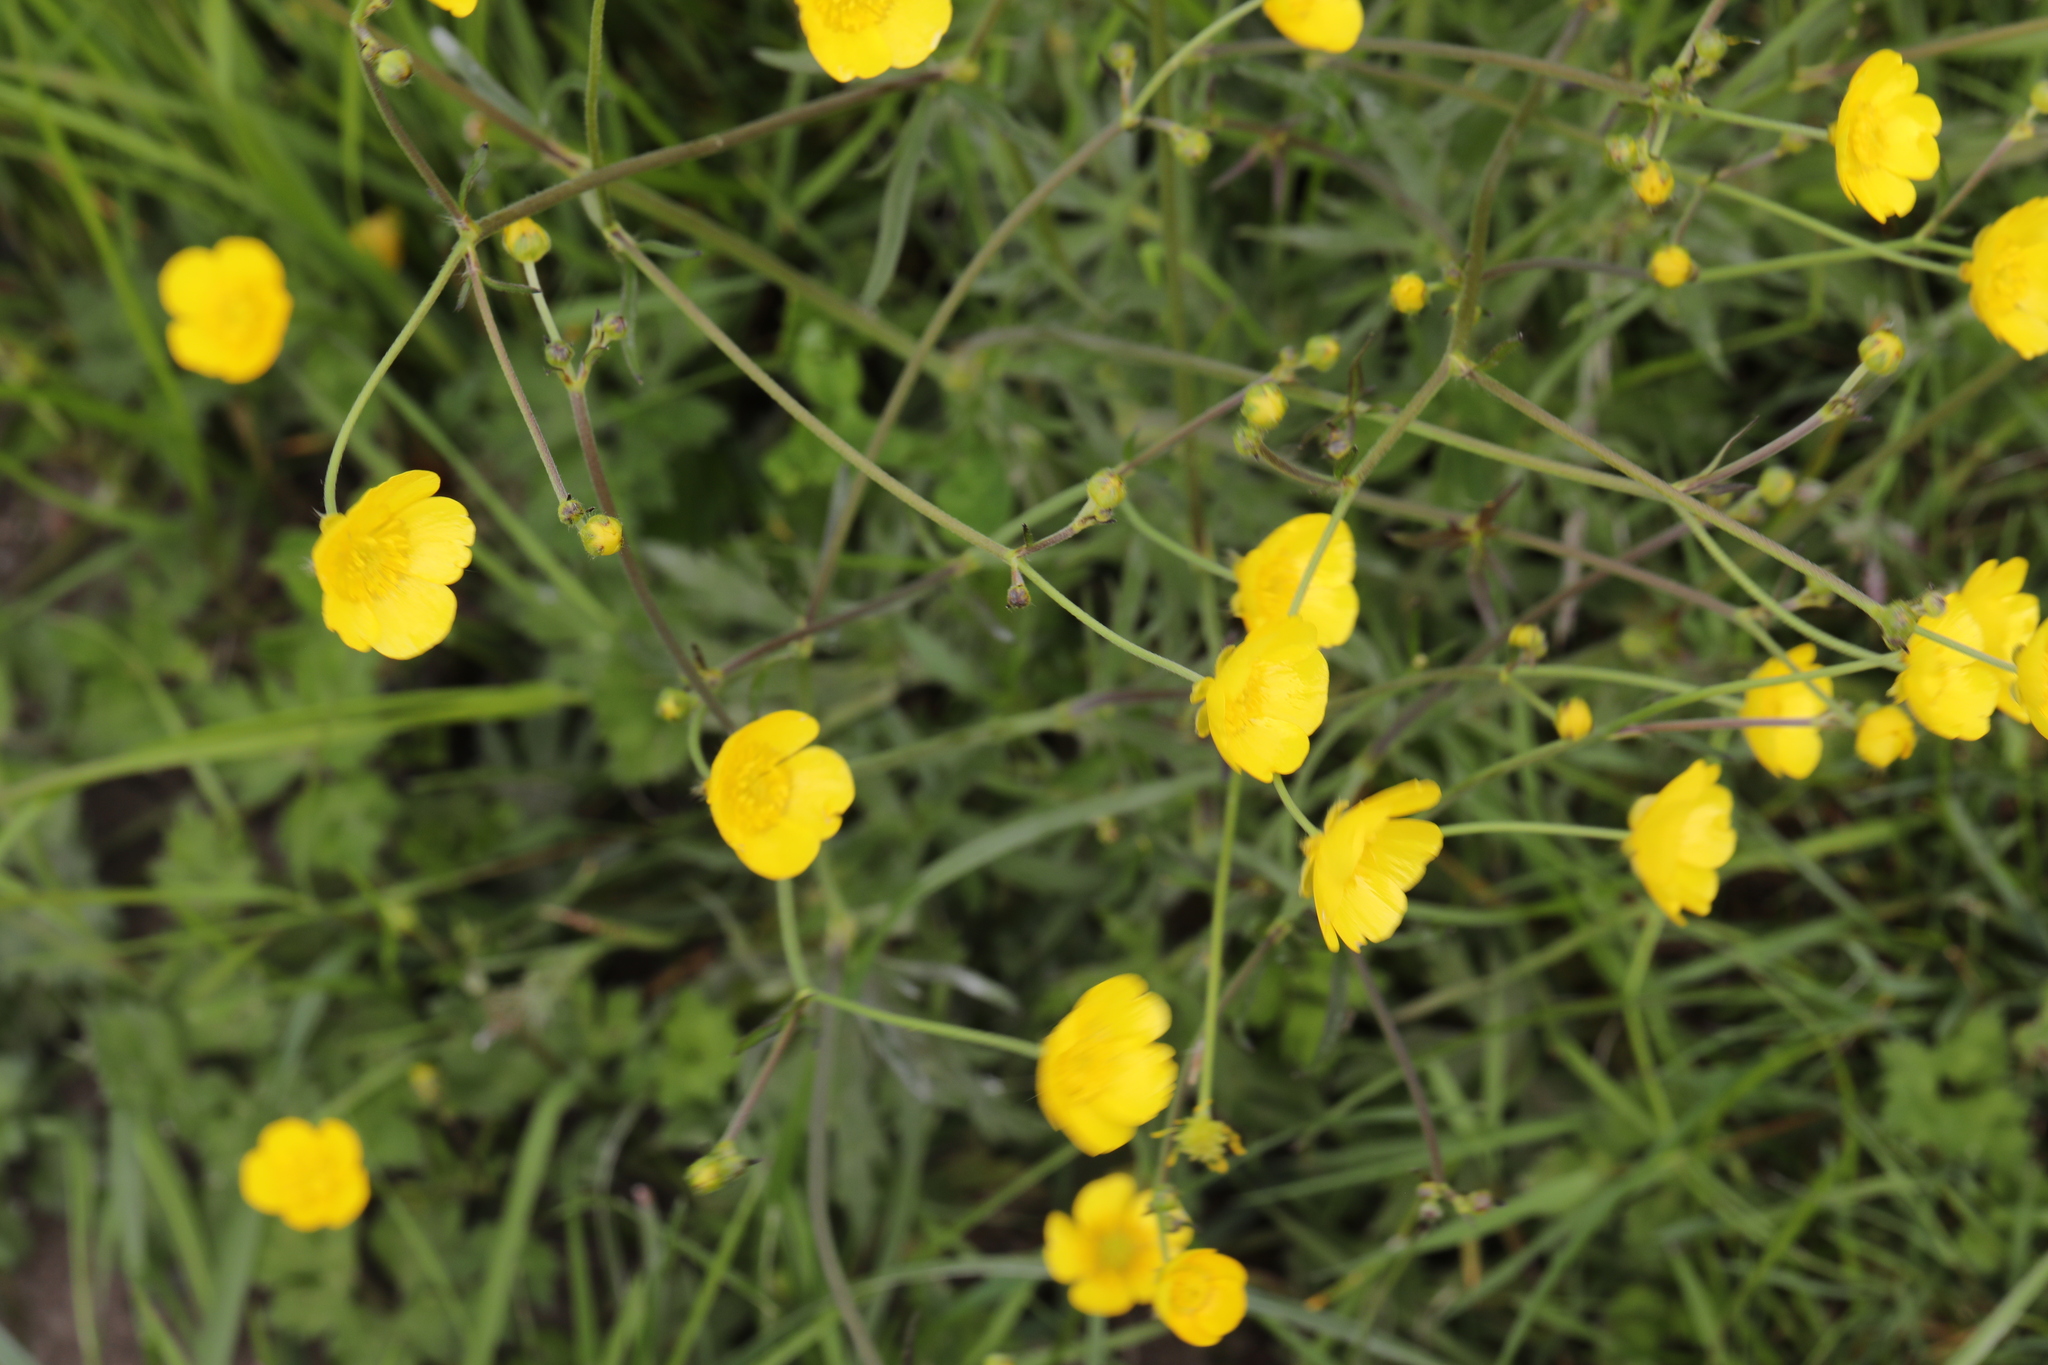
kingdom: Plantae
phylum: Tracheophyta
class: Magnoliopsida
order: Ranunculales
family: Ranunculaceae
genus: Ranunculus
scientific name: Ranunculus acris
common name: Meadow buttercup
